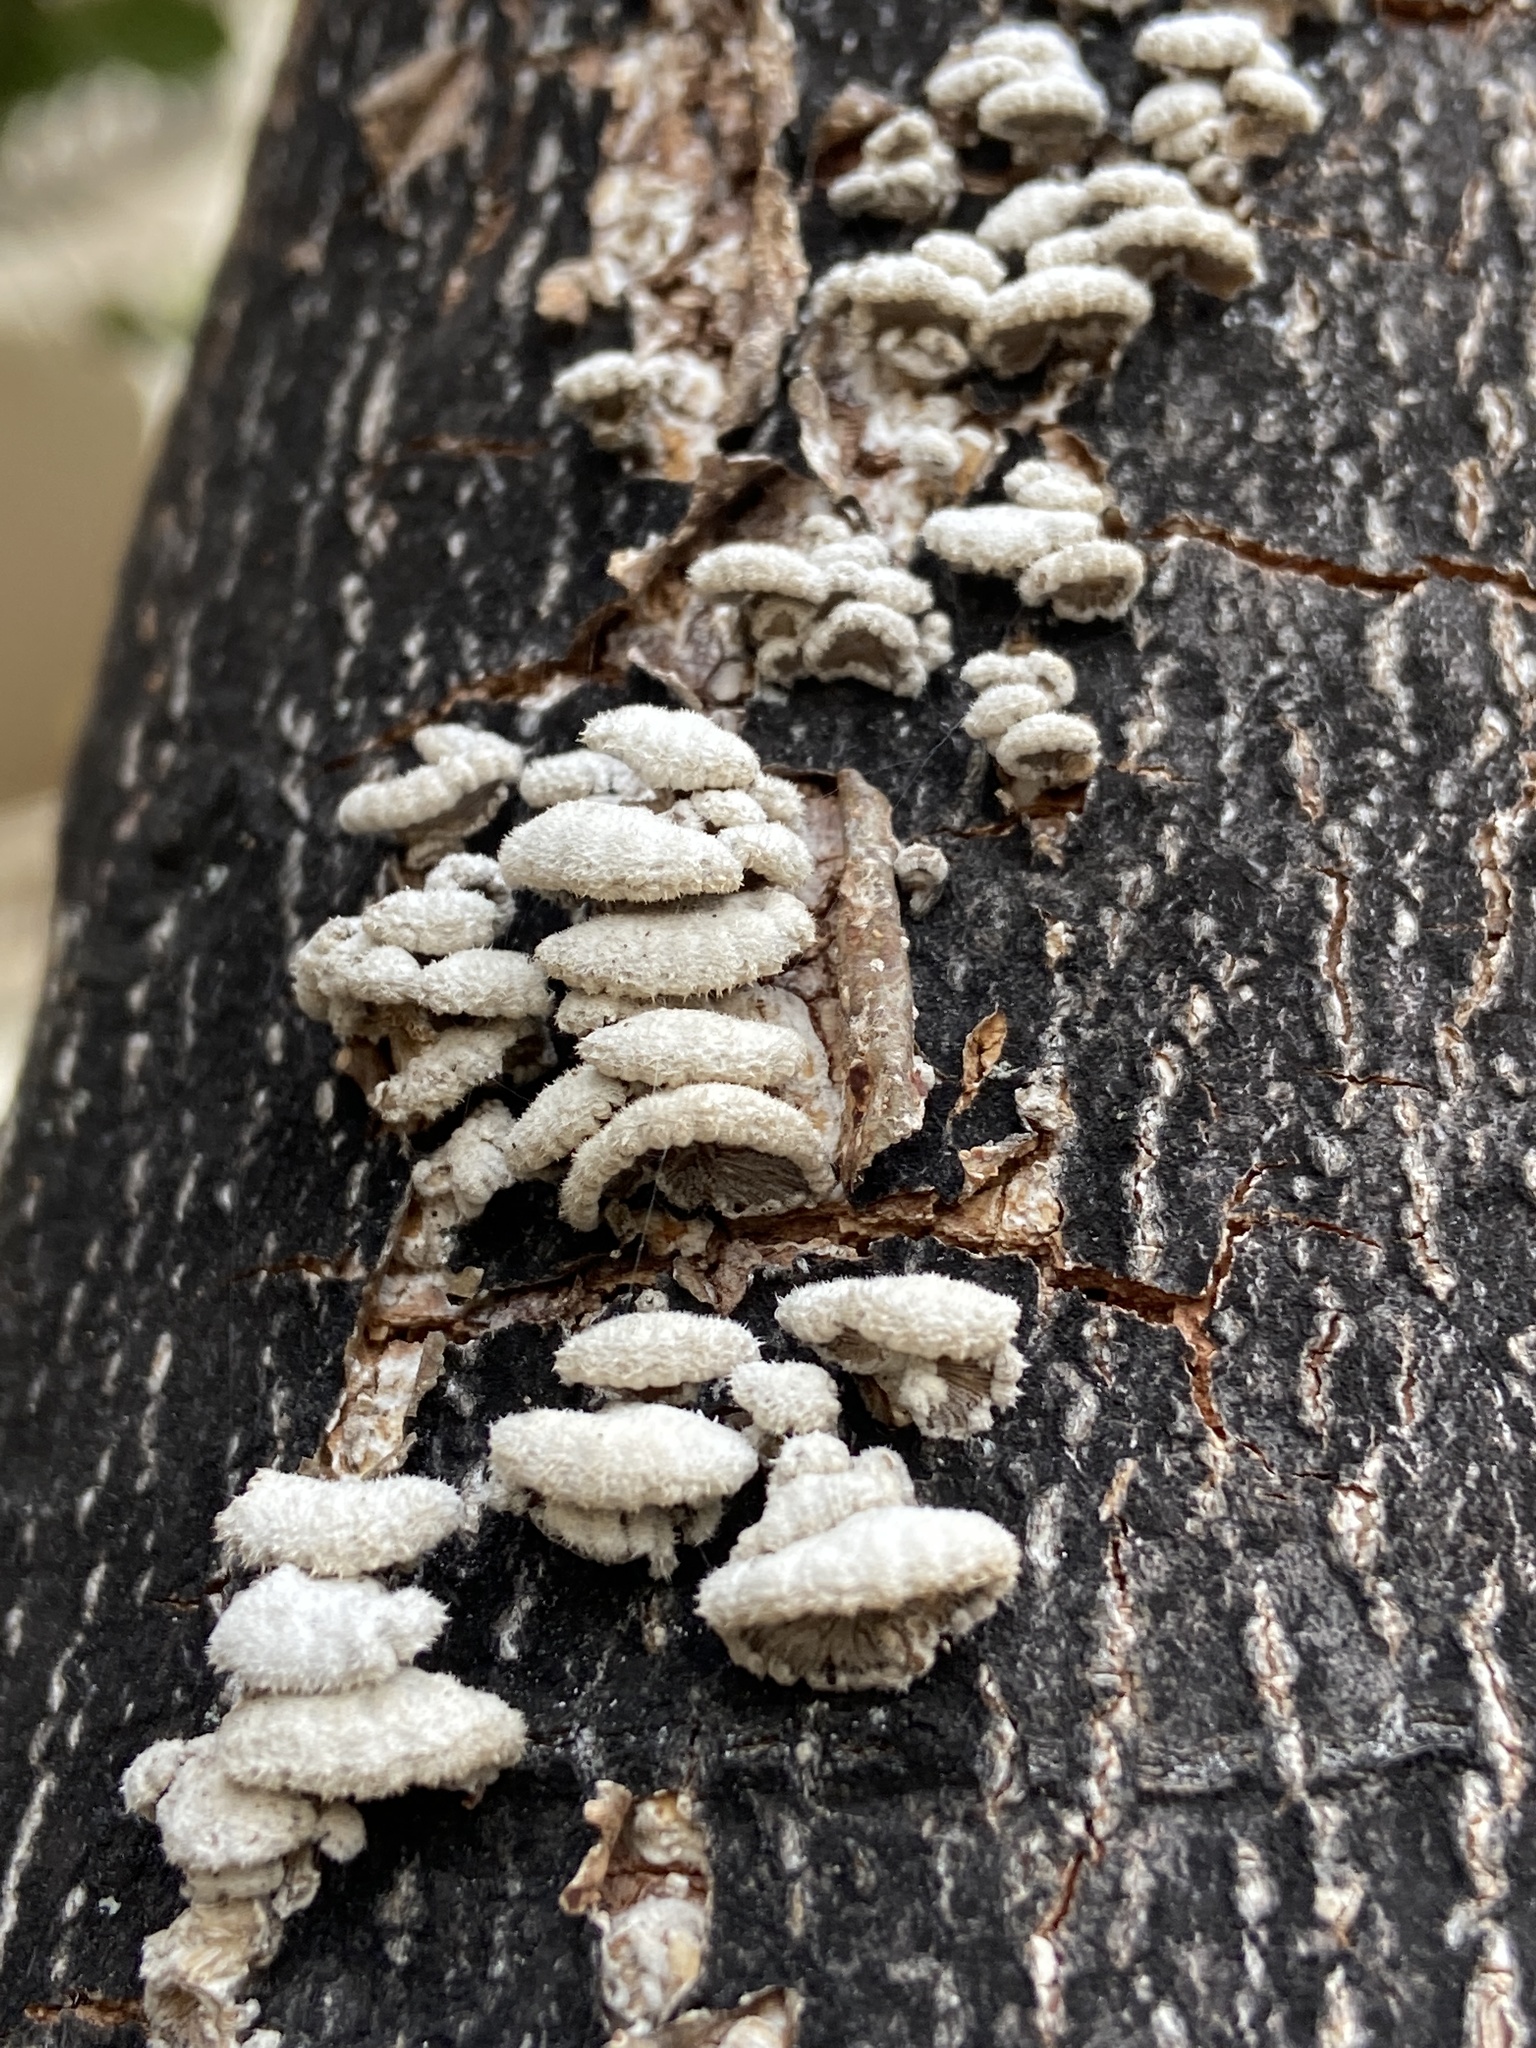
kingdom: Fungi
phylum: Basidiomycota
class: Agaricomycetes
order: Agaricales
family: Schizophyllaceae
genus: Schizophyllum
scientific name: Schizophyllum commune
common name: Common porecrust
